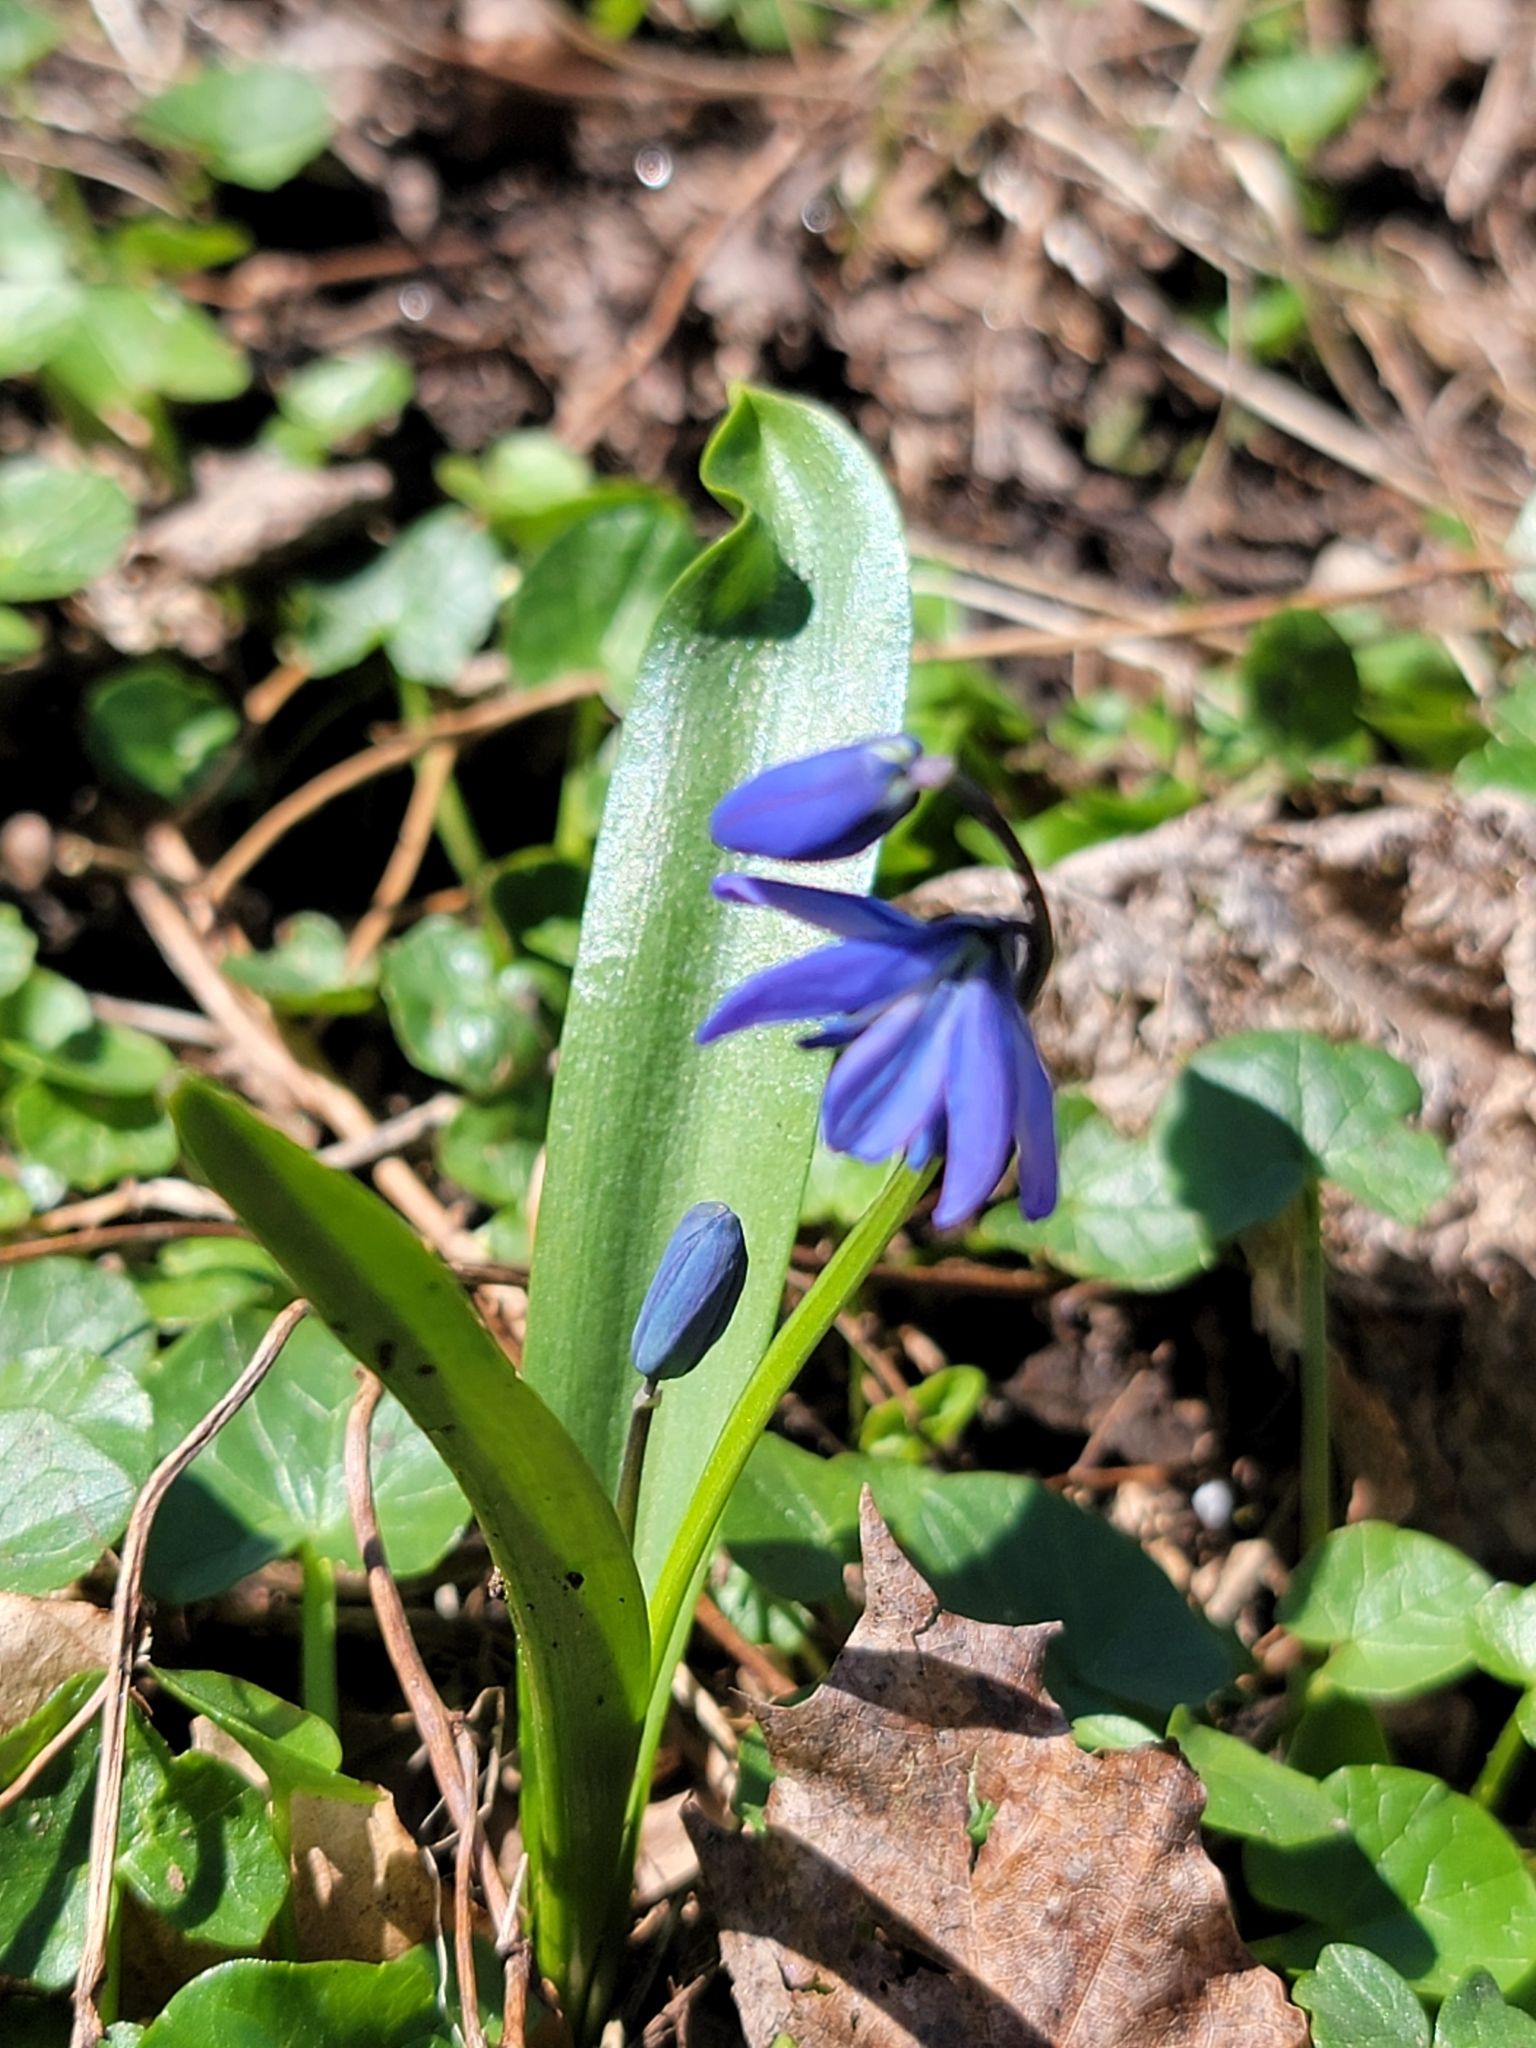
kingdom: Plantae
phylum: Tracheophyta
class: Liliopsida
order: Asparagales
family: Asparagaceae
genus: Scilla
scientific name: Scilla siberica
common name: Siberian squill
